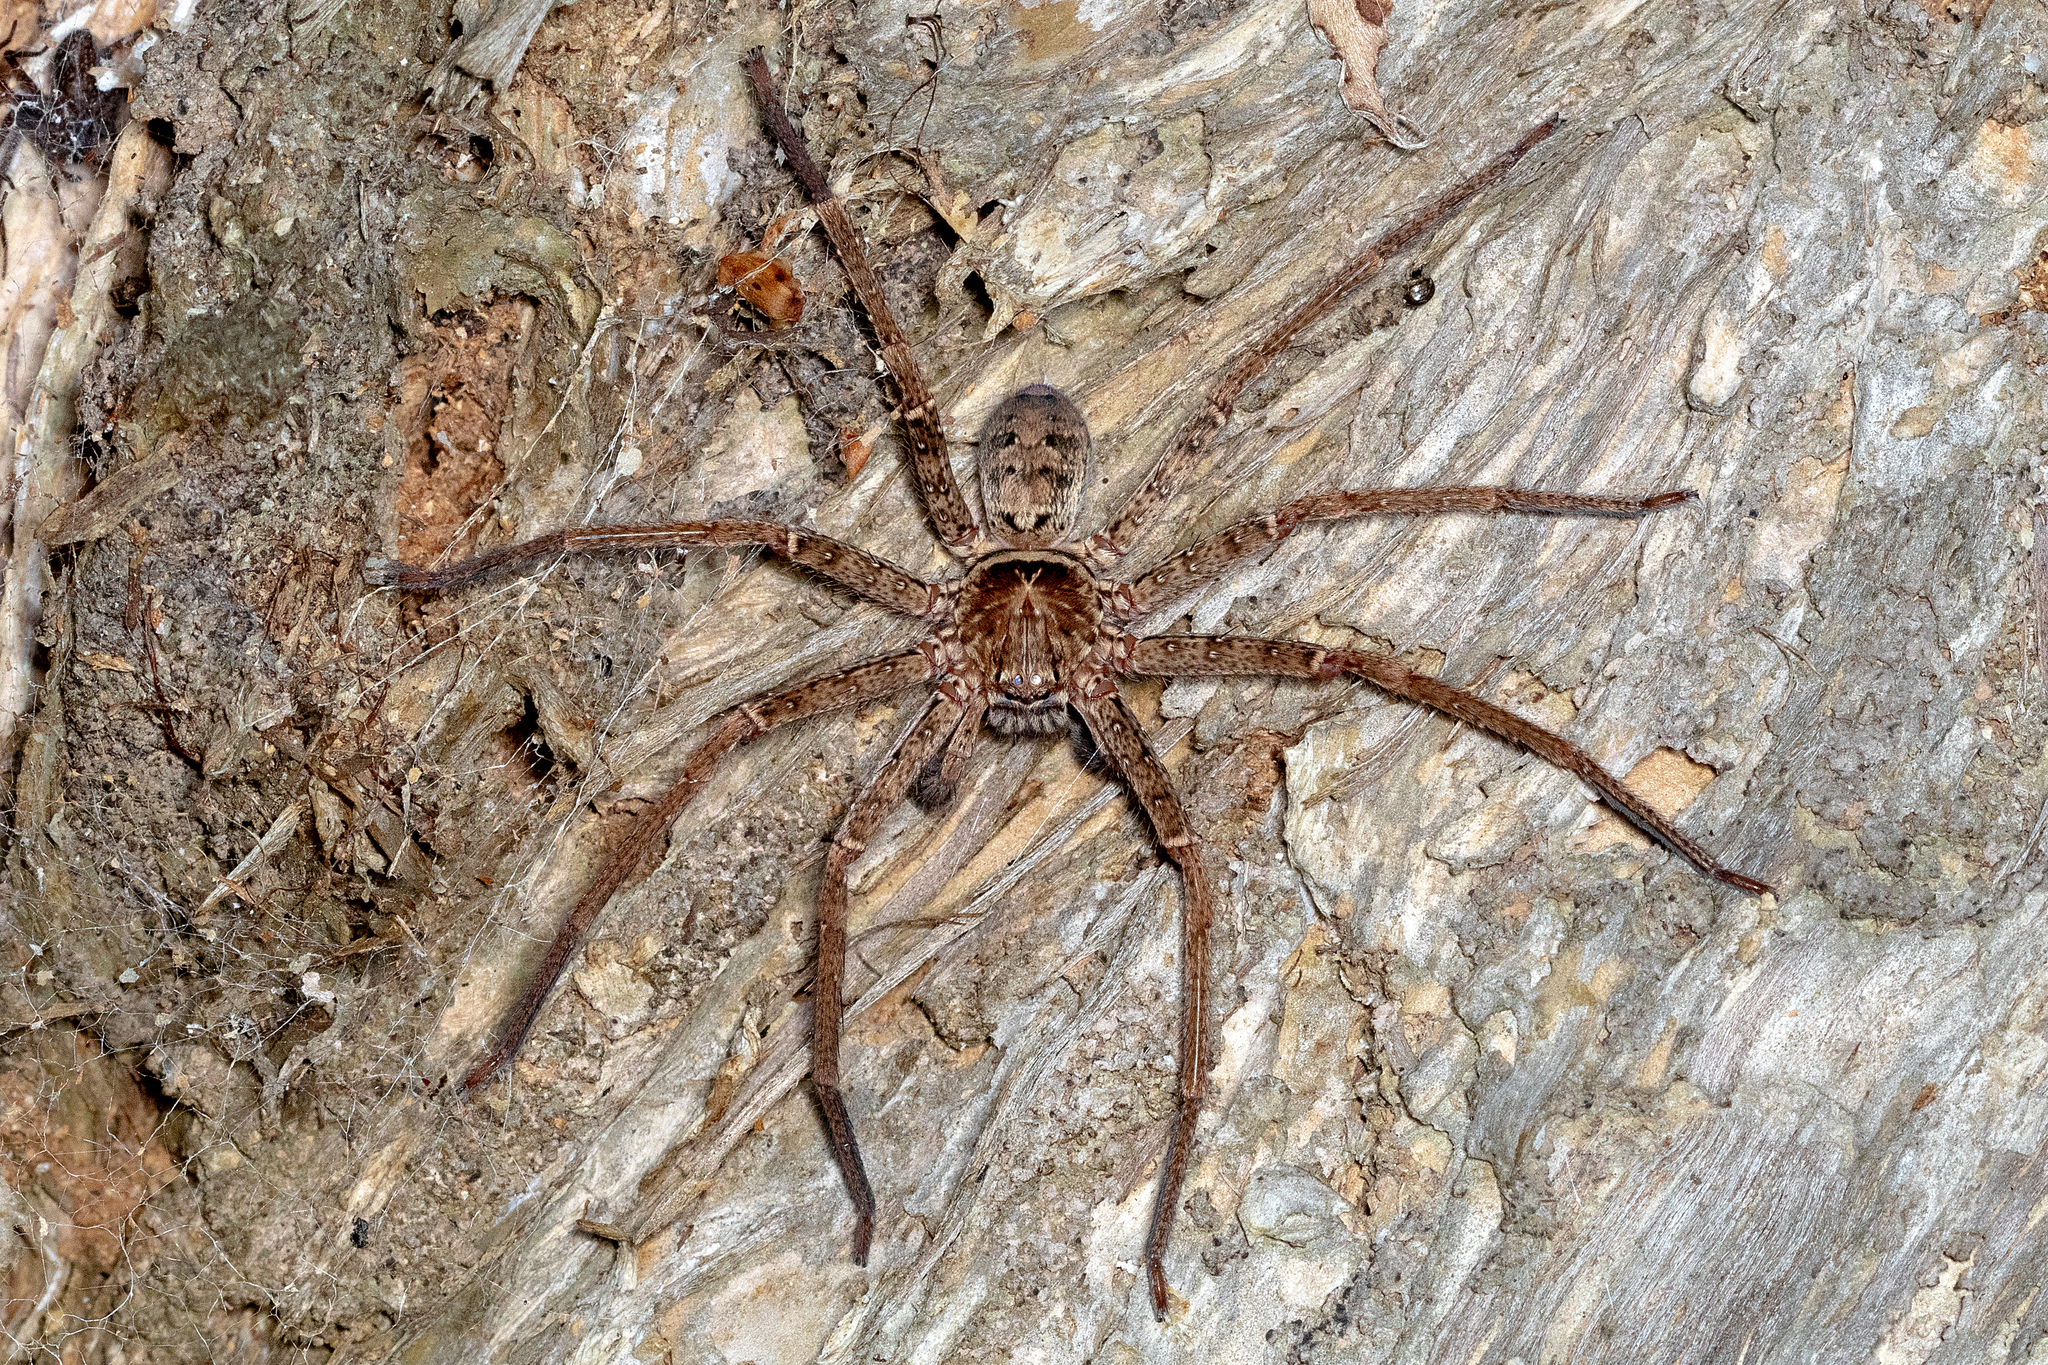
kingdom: Animalia
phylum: Arthropoda
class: Arachnida
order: Araneae
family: Sparassidae
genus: Heteropoda
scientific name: Heteropoda jugulans
